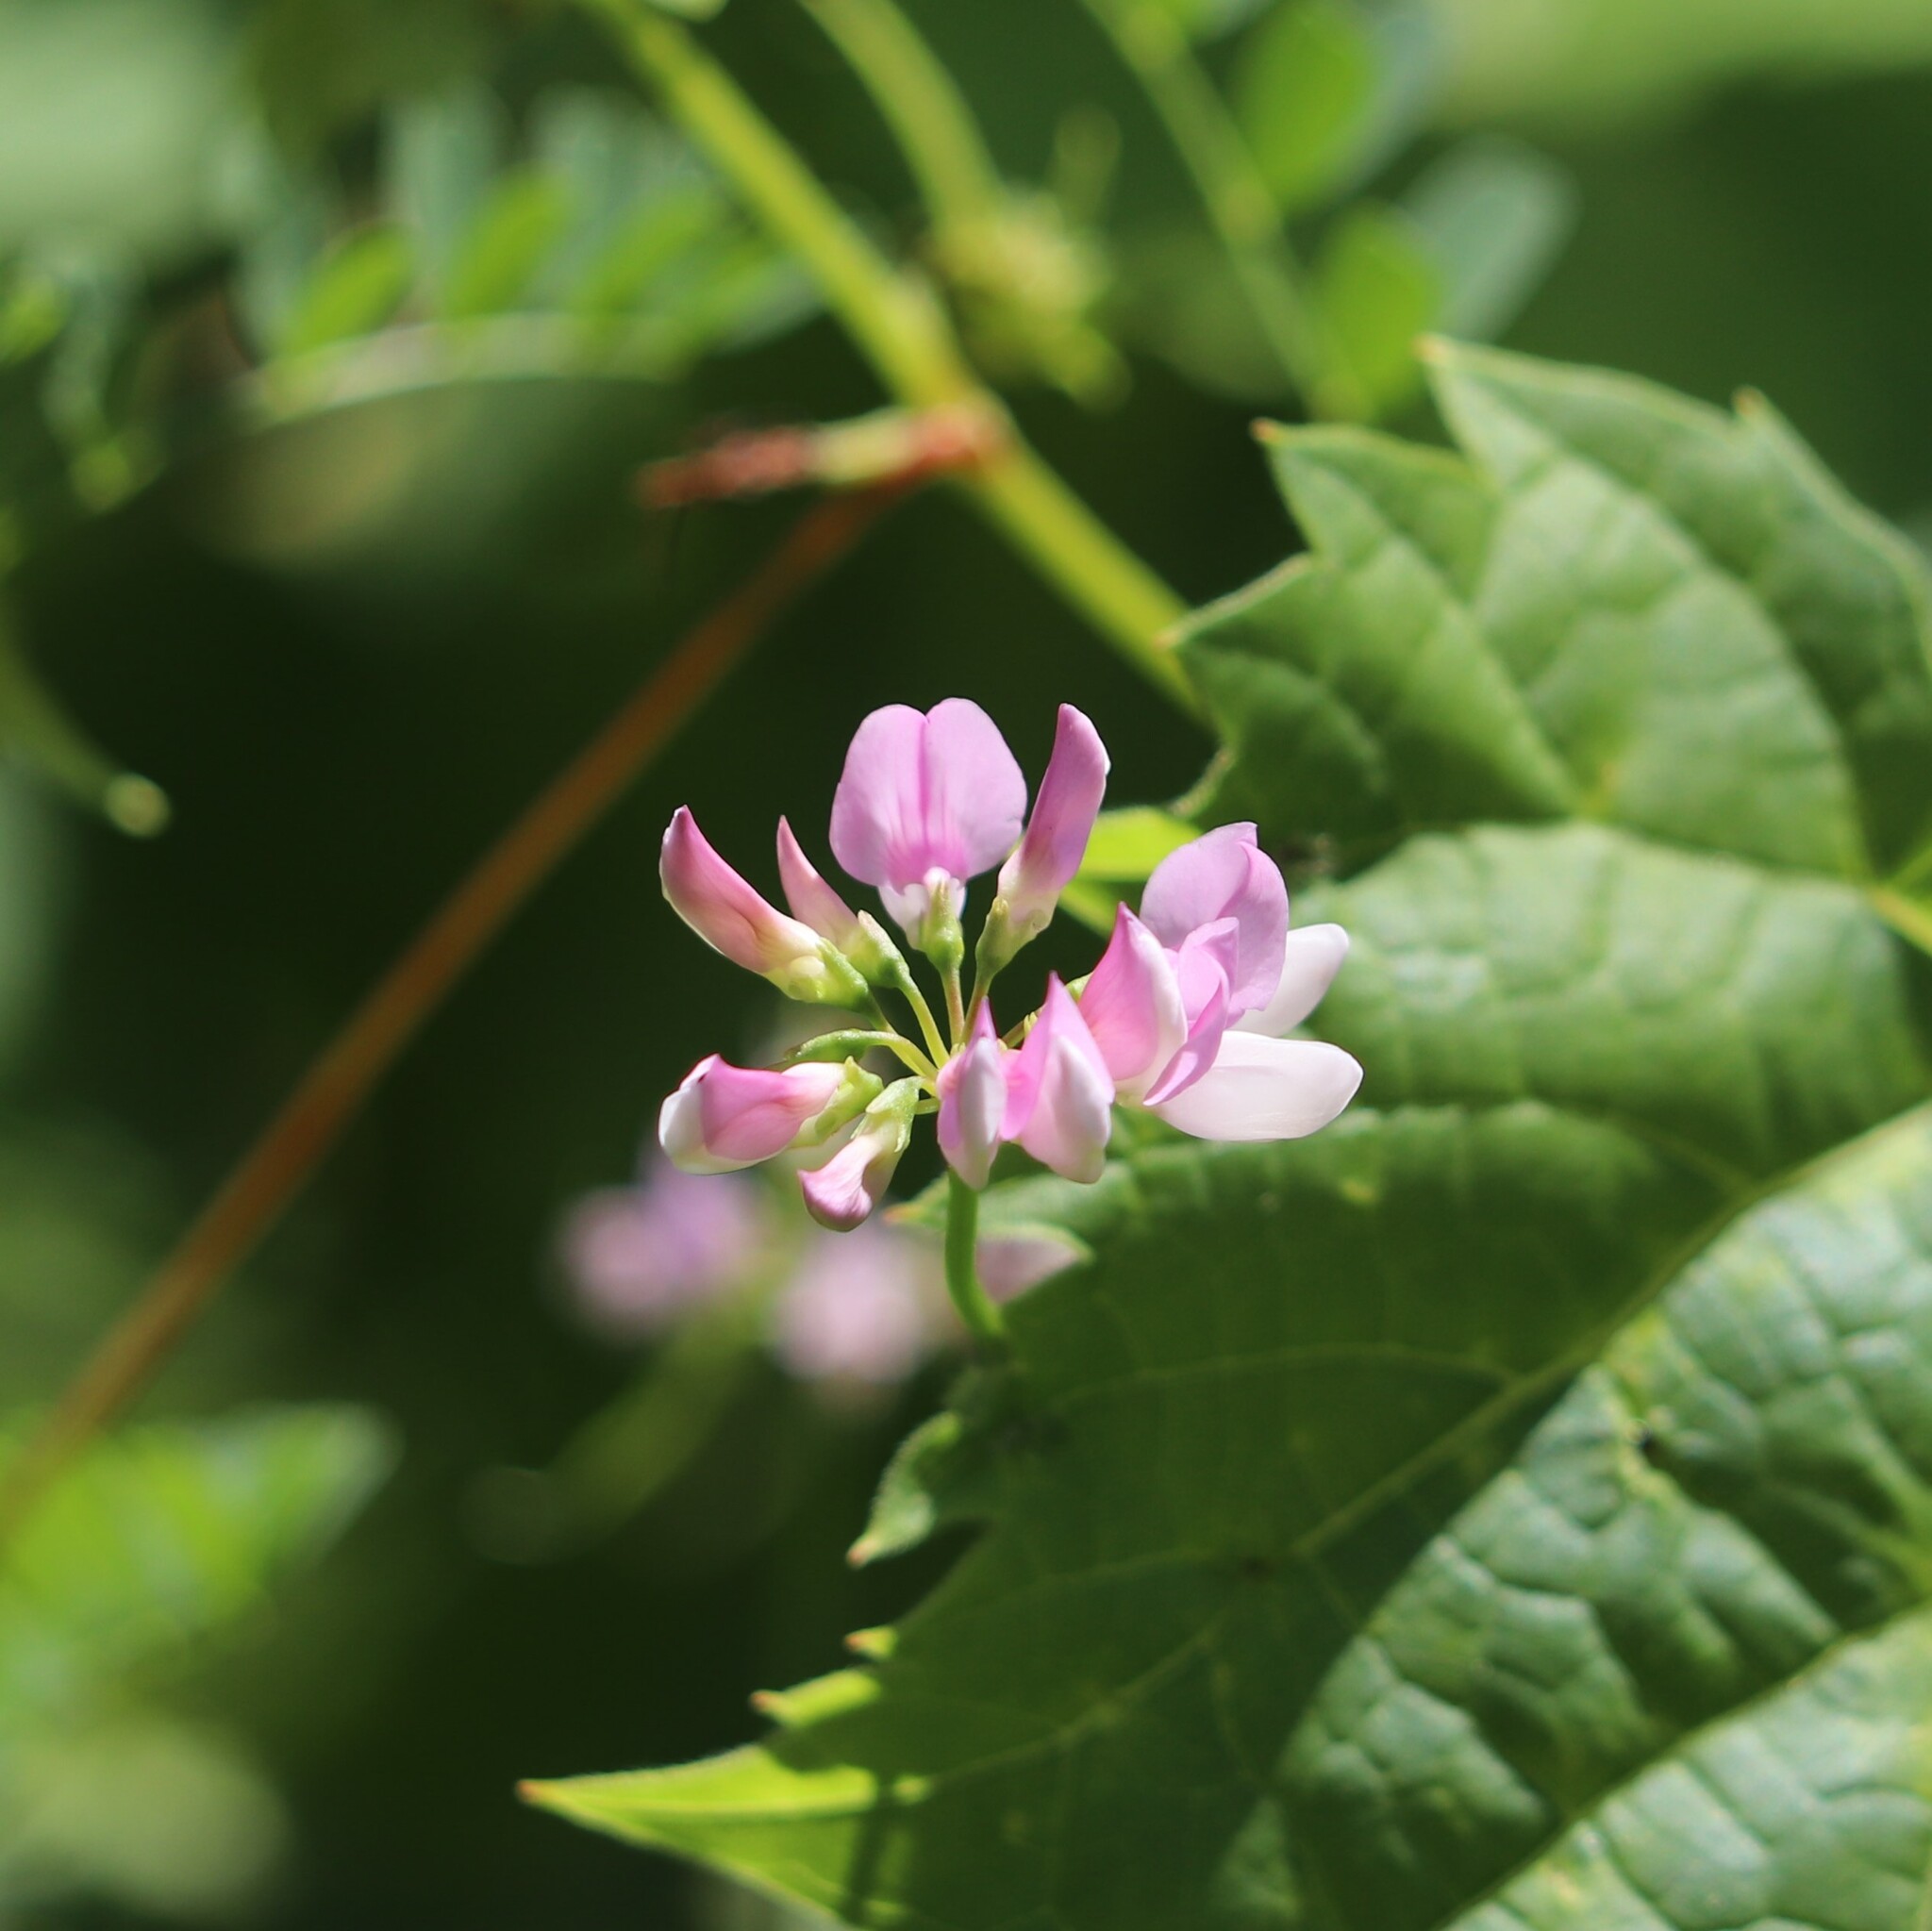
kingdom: Plantae
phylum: Tracheophyta
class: Magnoliopsida
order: Fabales
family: Fabaceae
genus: Coronilla
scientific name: Coronilla varia
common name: Crownvetch
